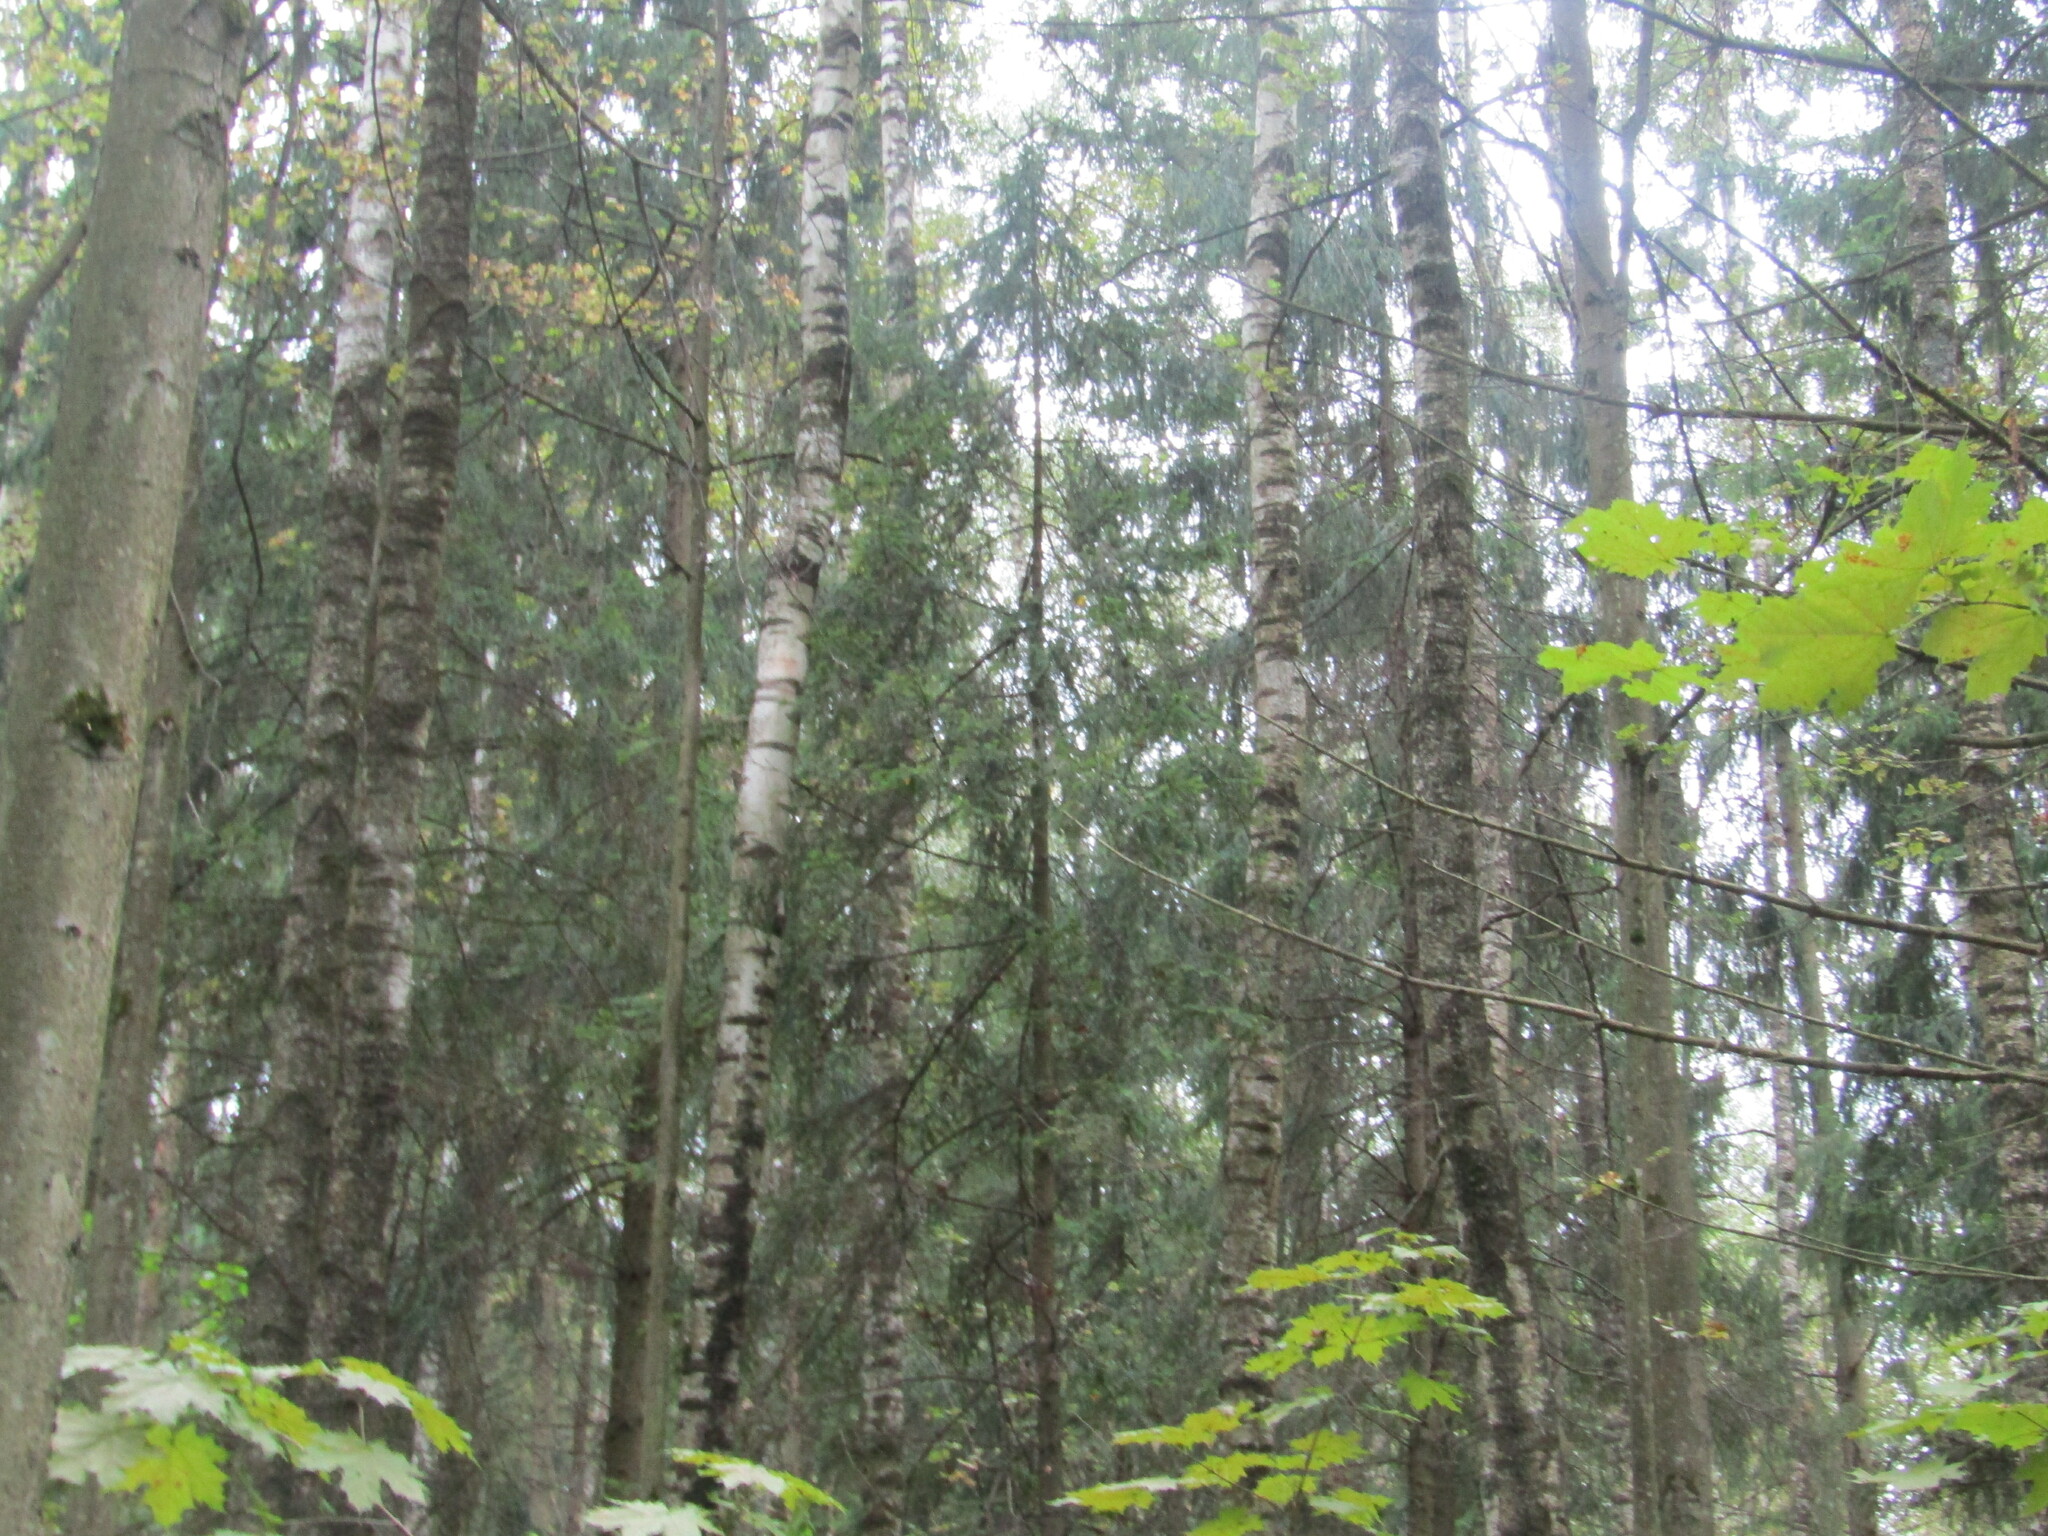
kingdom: Plantae
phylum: Tracheophyta
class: Pinopsida
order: Pinales
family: Pinaceae
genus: Picea
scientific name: Picea abies
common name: Norway spruce
